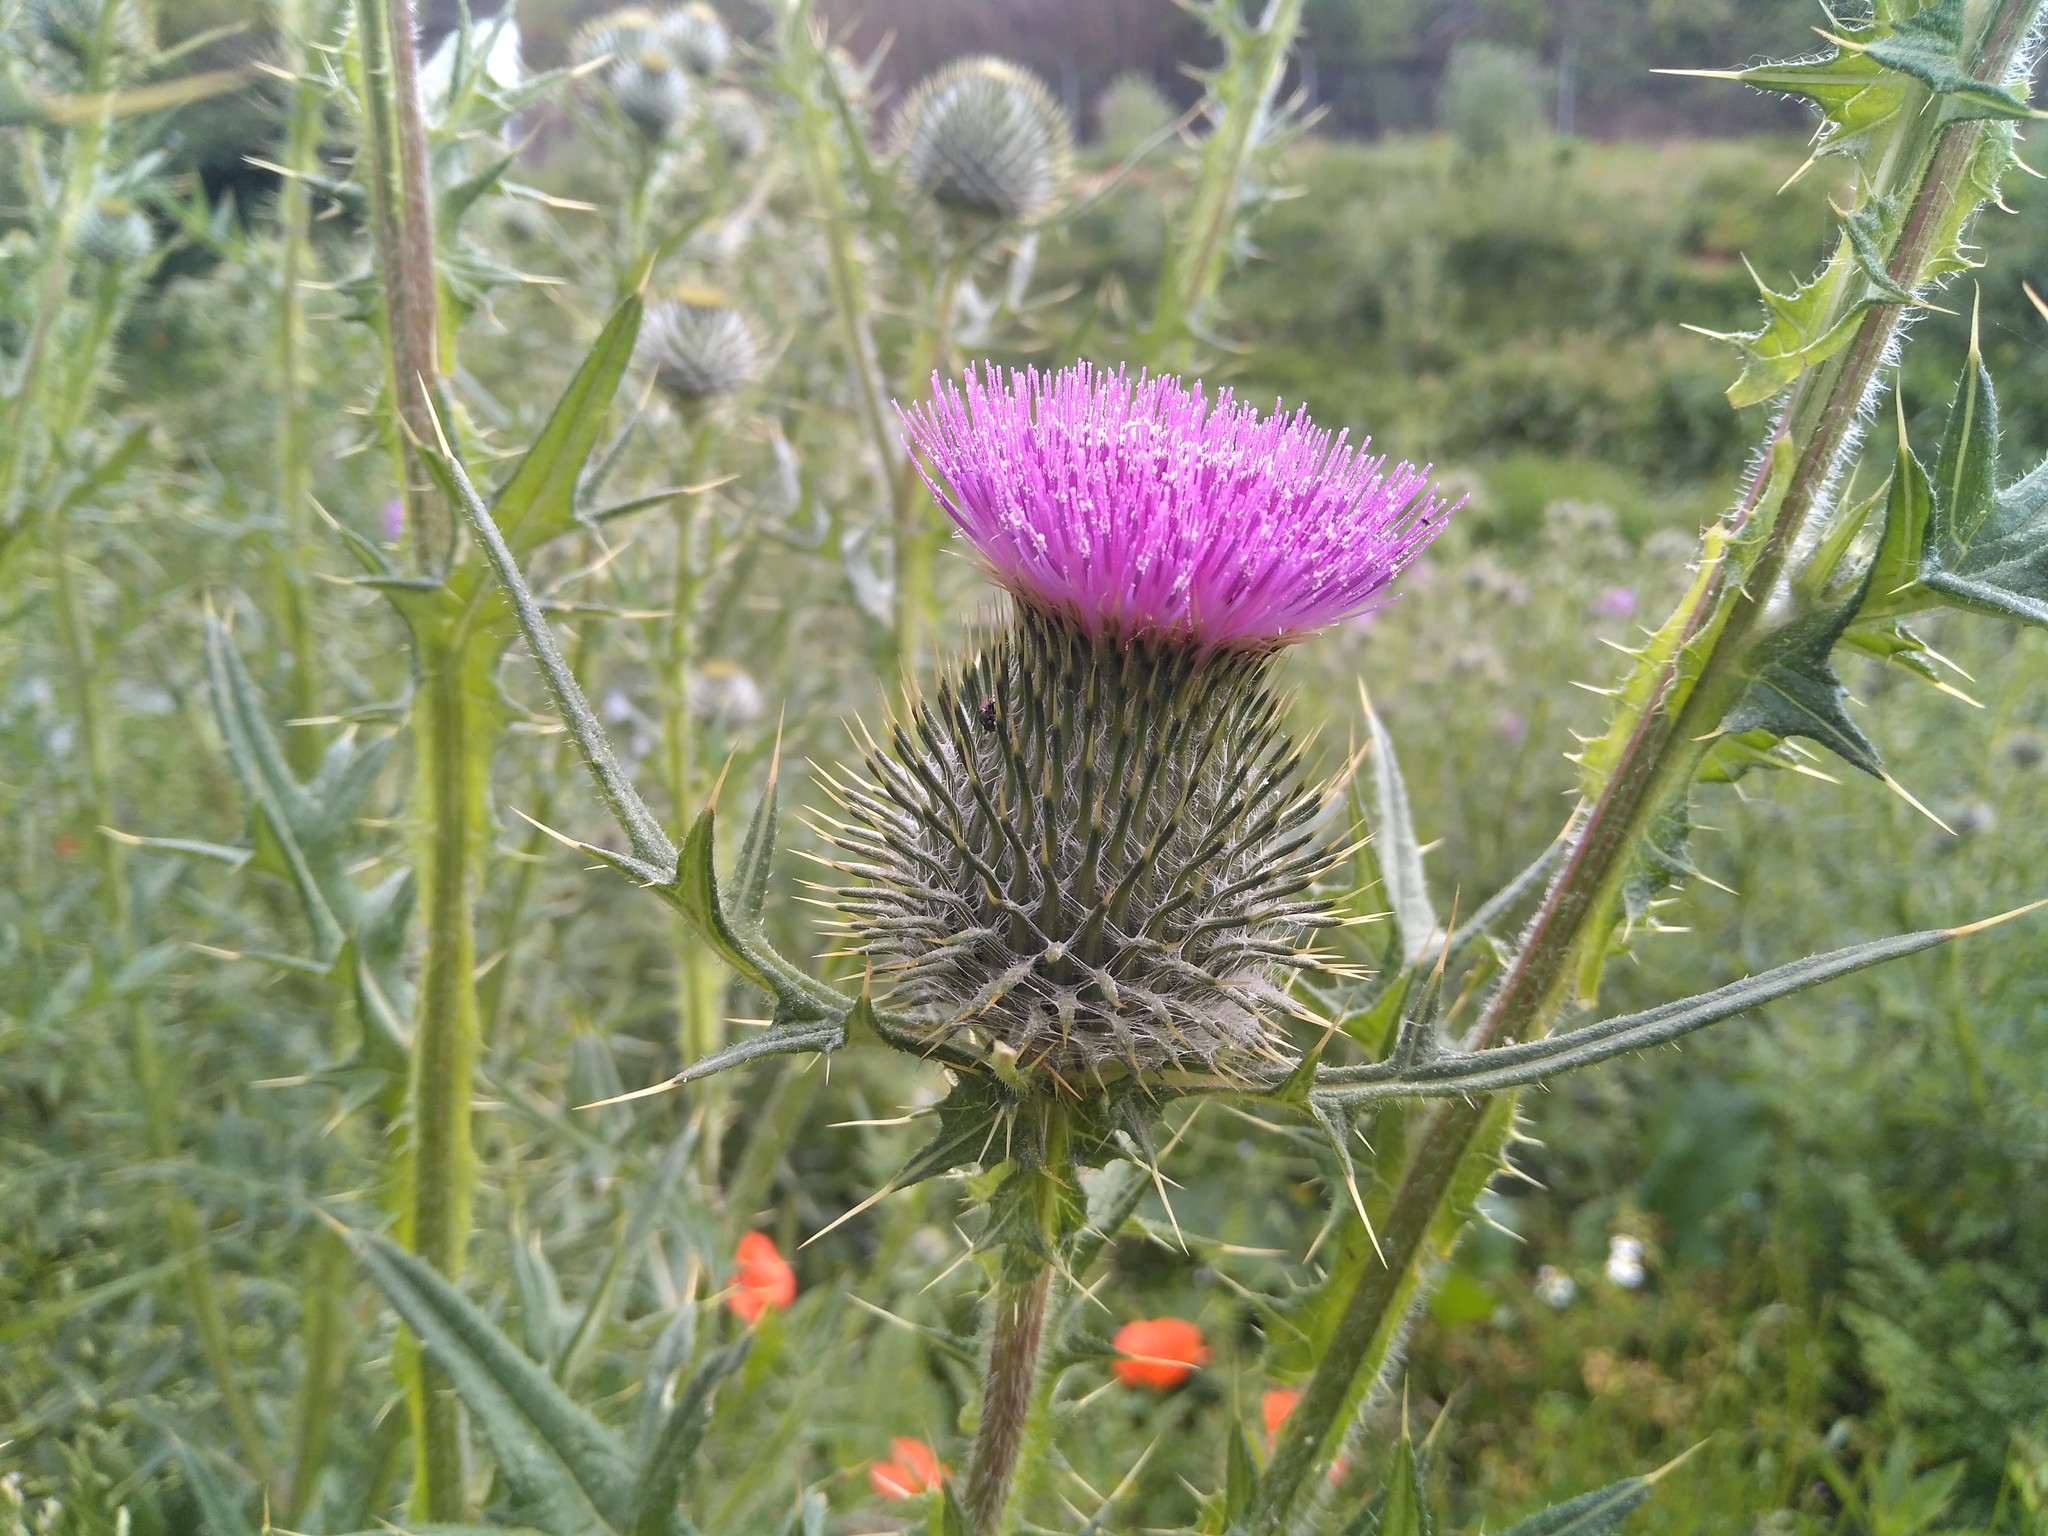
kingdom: Plantae
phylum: Tracheophyta
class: Magnoliopsida
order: Asterales
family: Asteraceae
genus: Cirsium
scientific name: Cirsium vulgare
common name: Bull thistle
